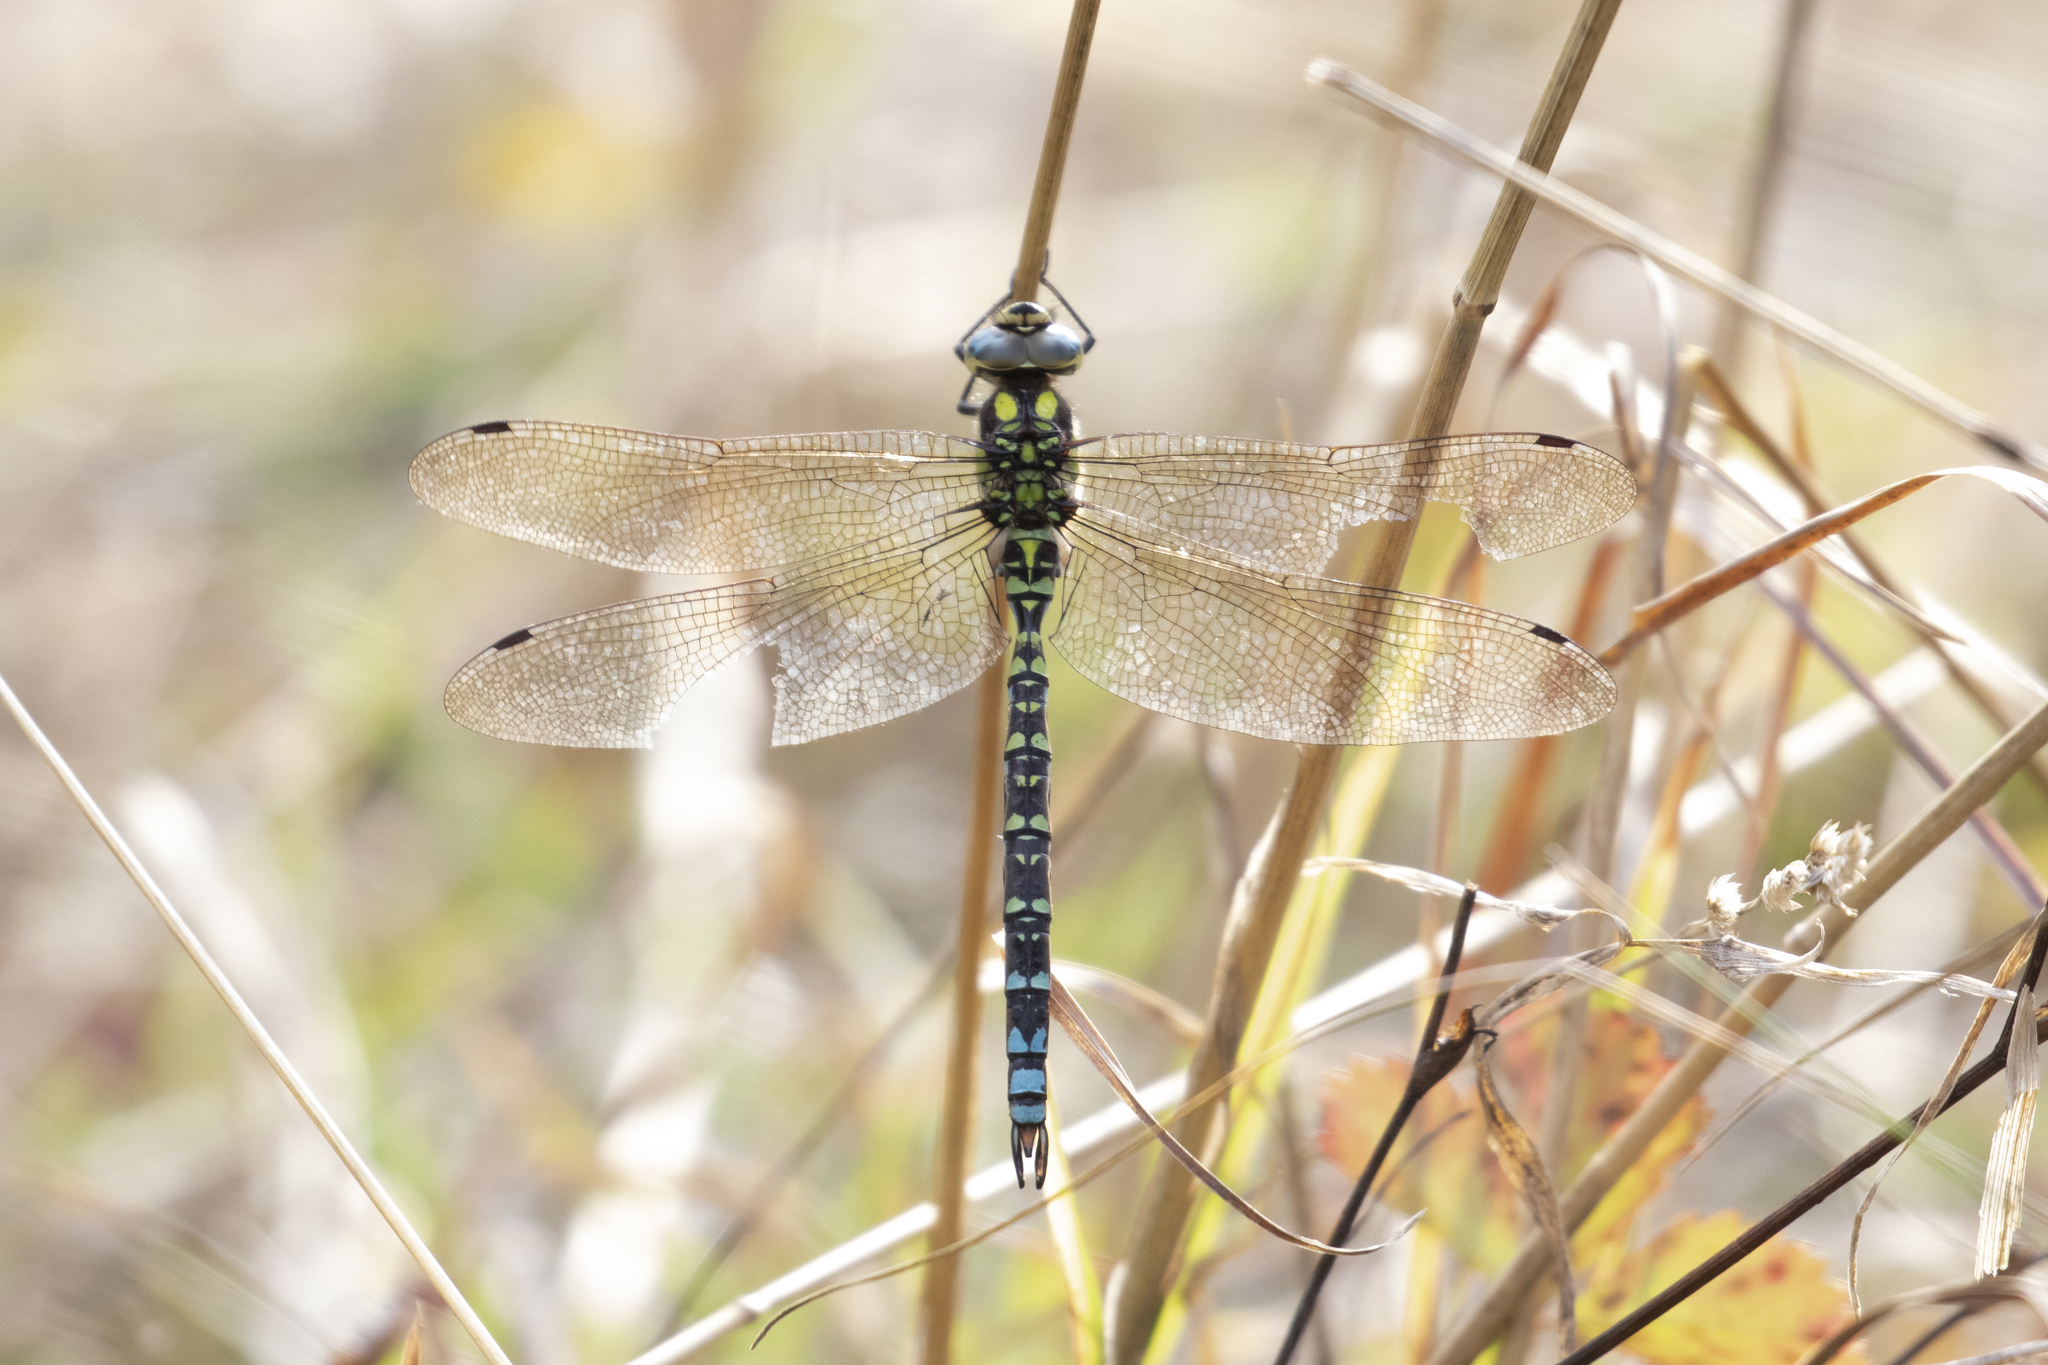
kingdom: Animalia
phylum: Arthropoda
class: Insecta
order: Odonata
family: Aeshnidae
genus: Aeshna
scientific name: Aeshna cyanea
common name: Southern hawker
